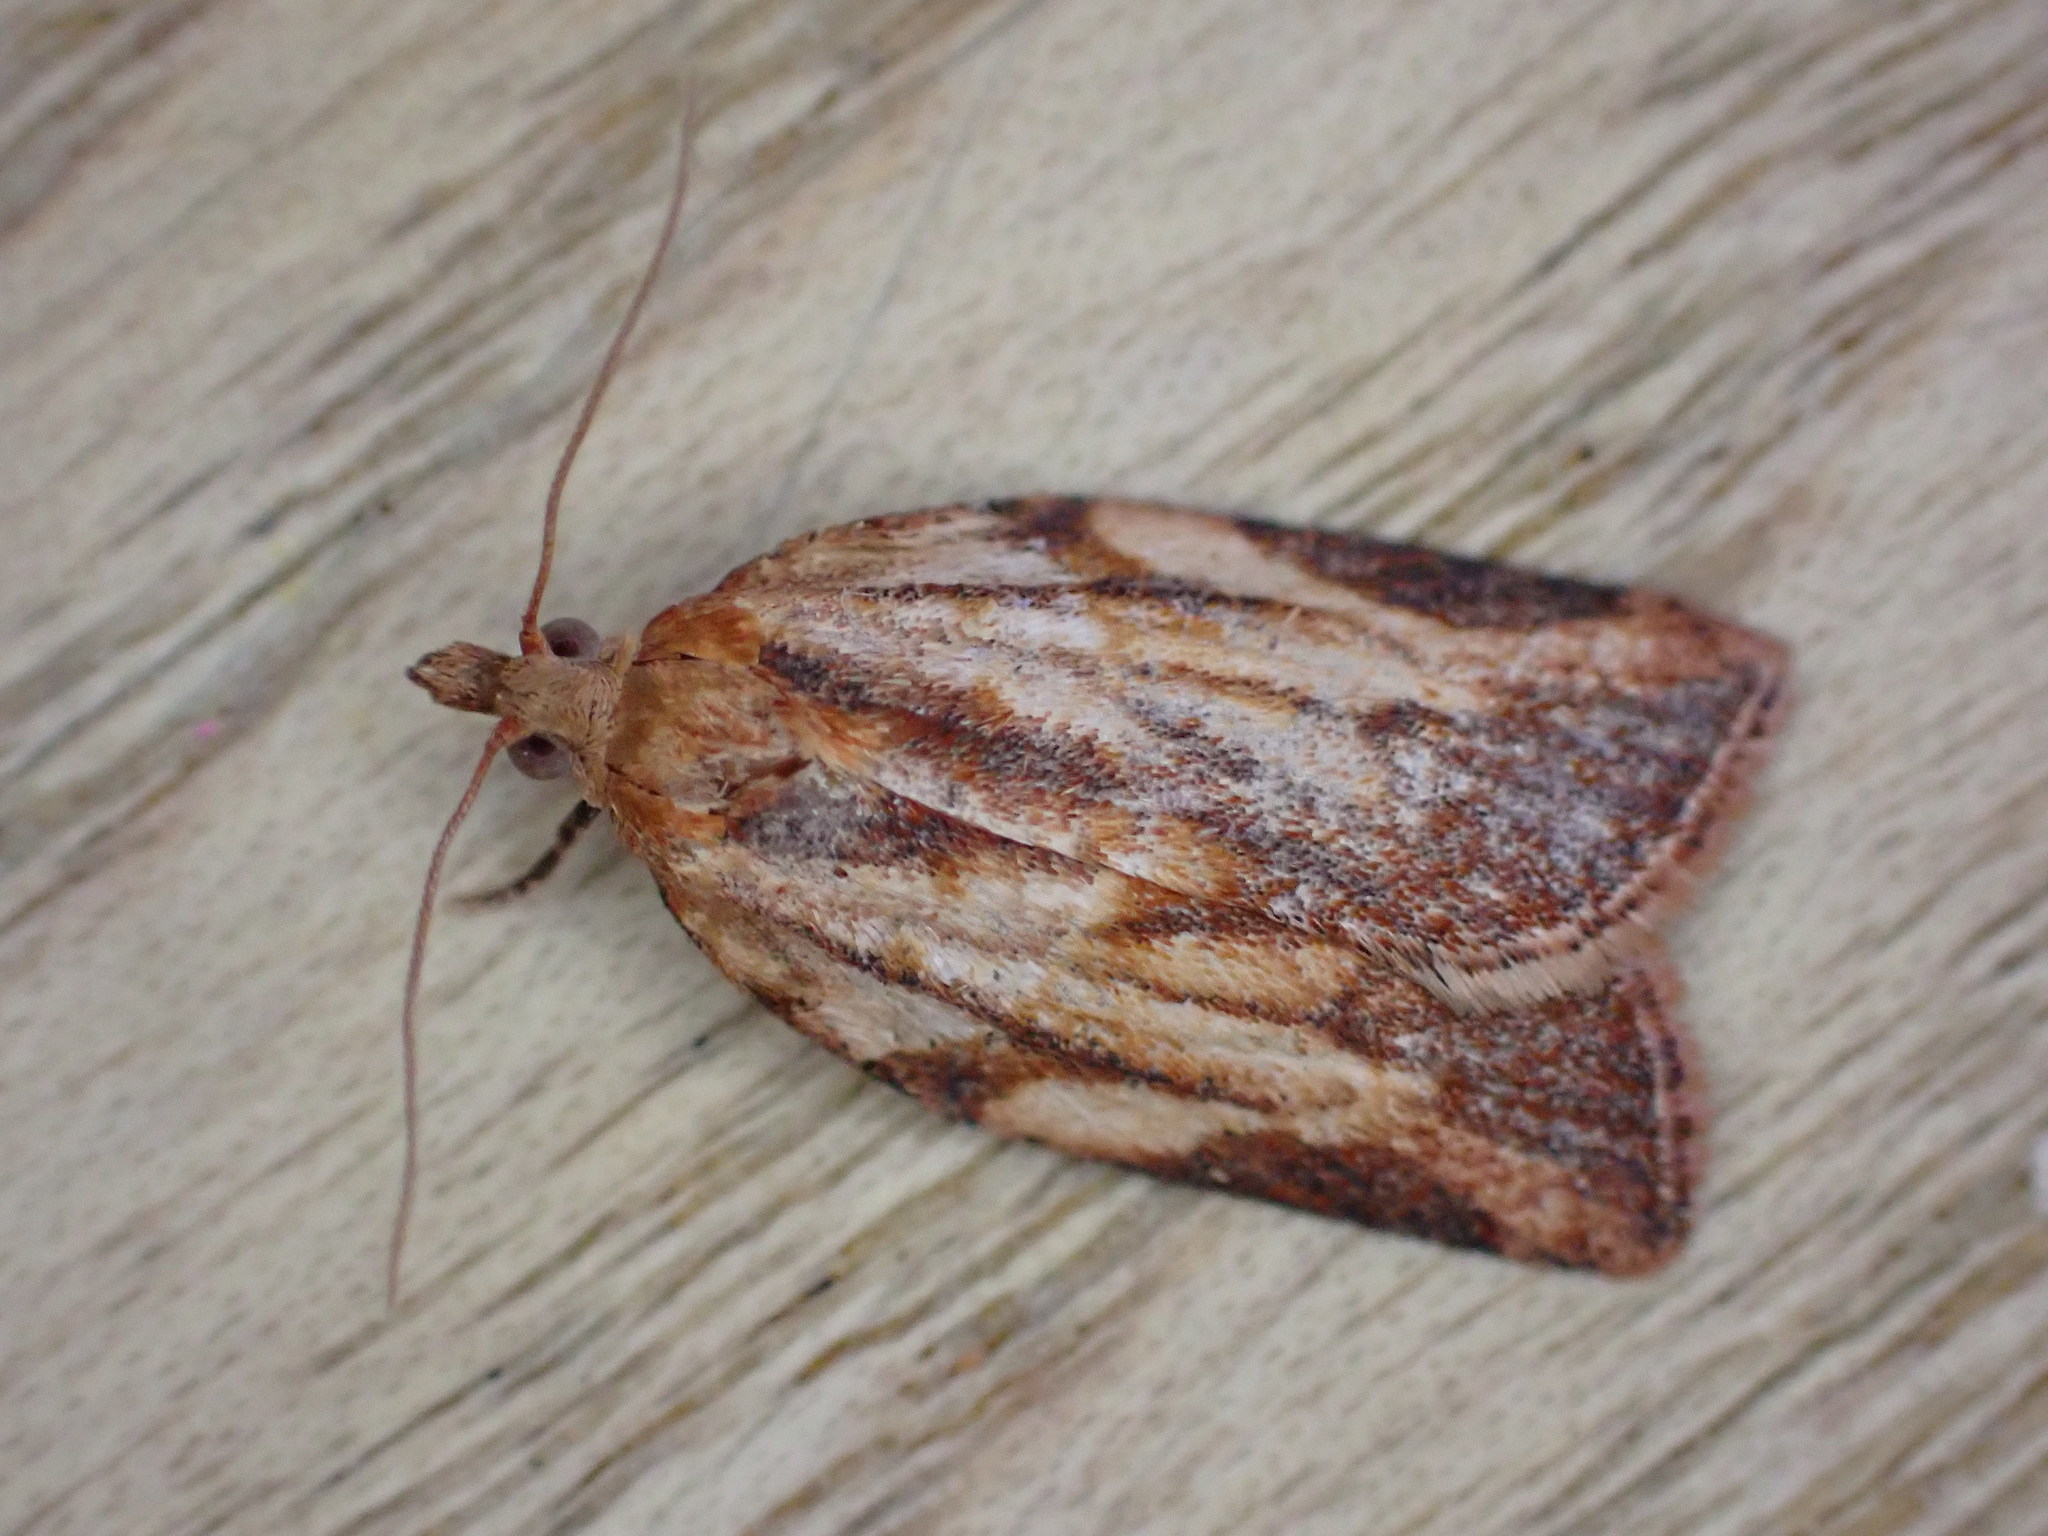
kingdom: Animalia
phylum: Arthropoda
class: Insecta
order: Lepidoptera
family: Tortricidae
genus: Epiphyas
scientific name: Epiphyas postvittana
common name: Light brown apple moth
